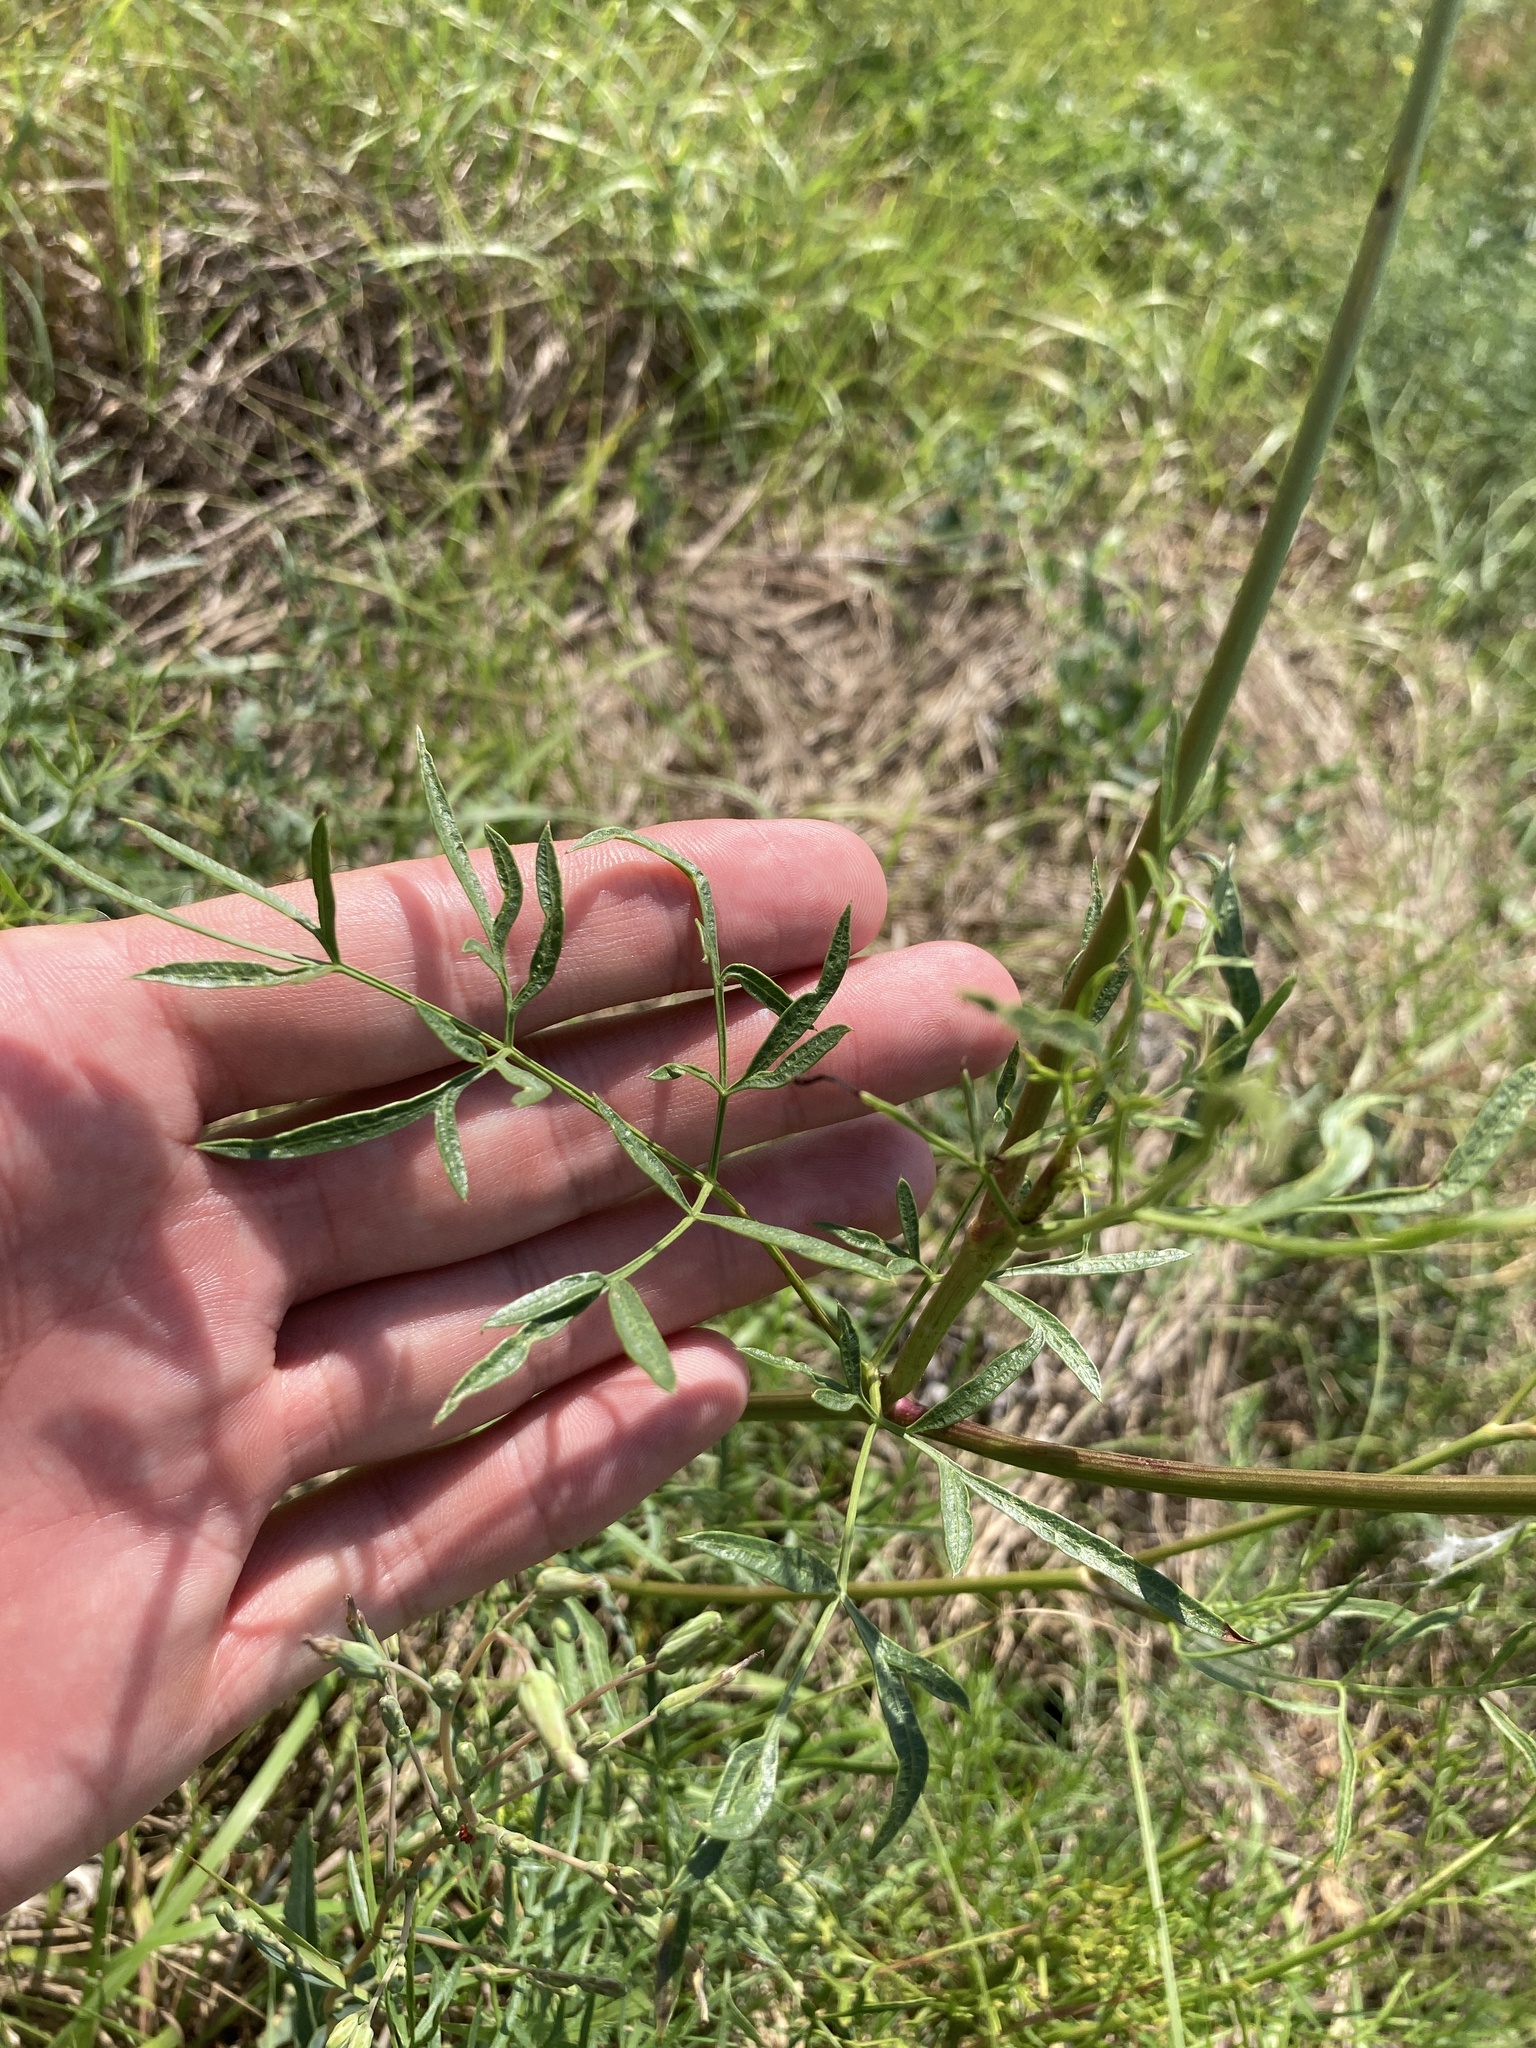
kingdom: Plantae
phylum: Tracheophyta
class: Magnoliopsida
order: Apiales
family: Apiaceae
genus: Silaum
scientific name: Silaum silaus
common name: Pepper-saxifrage
